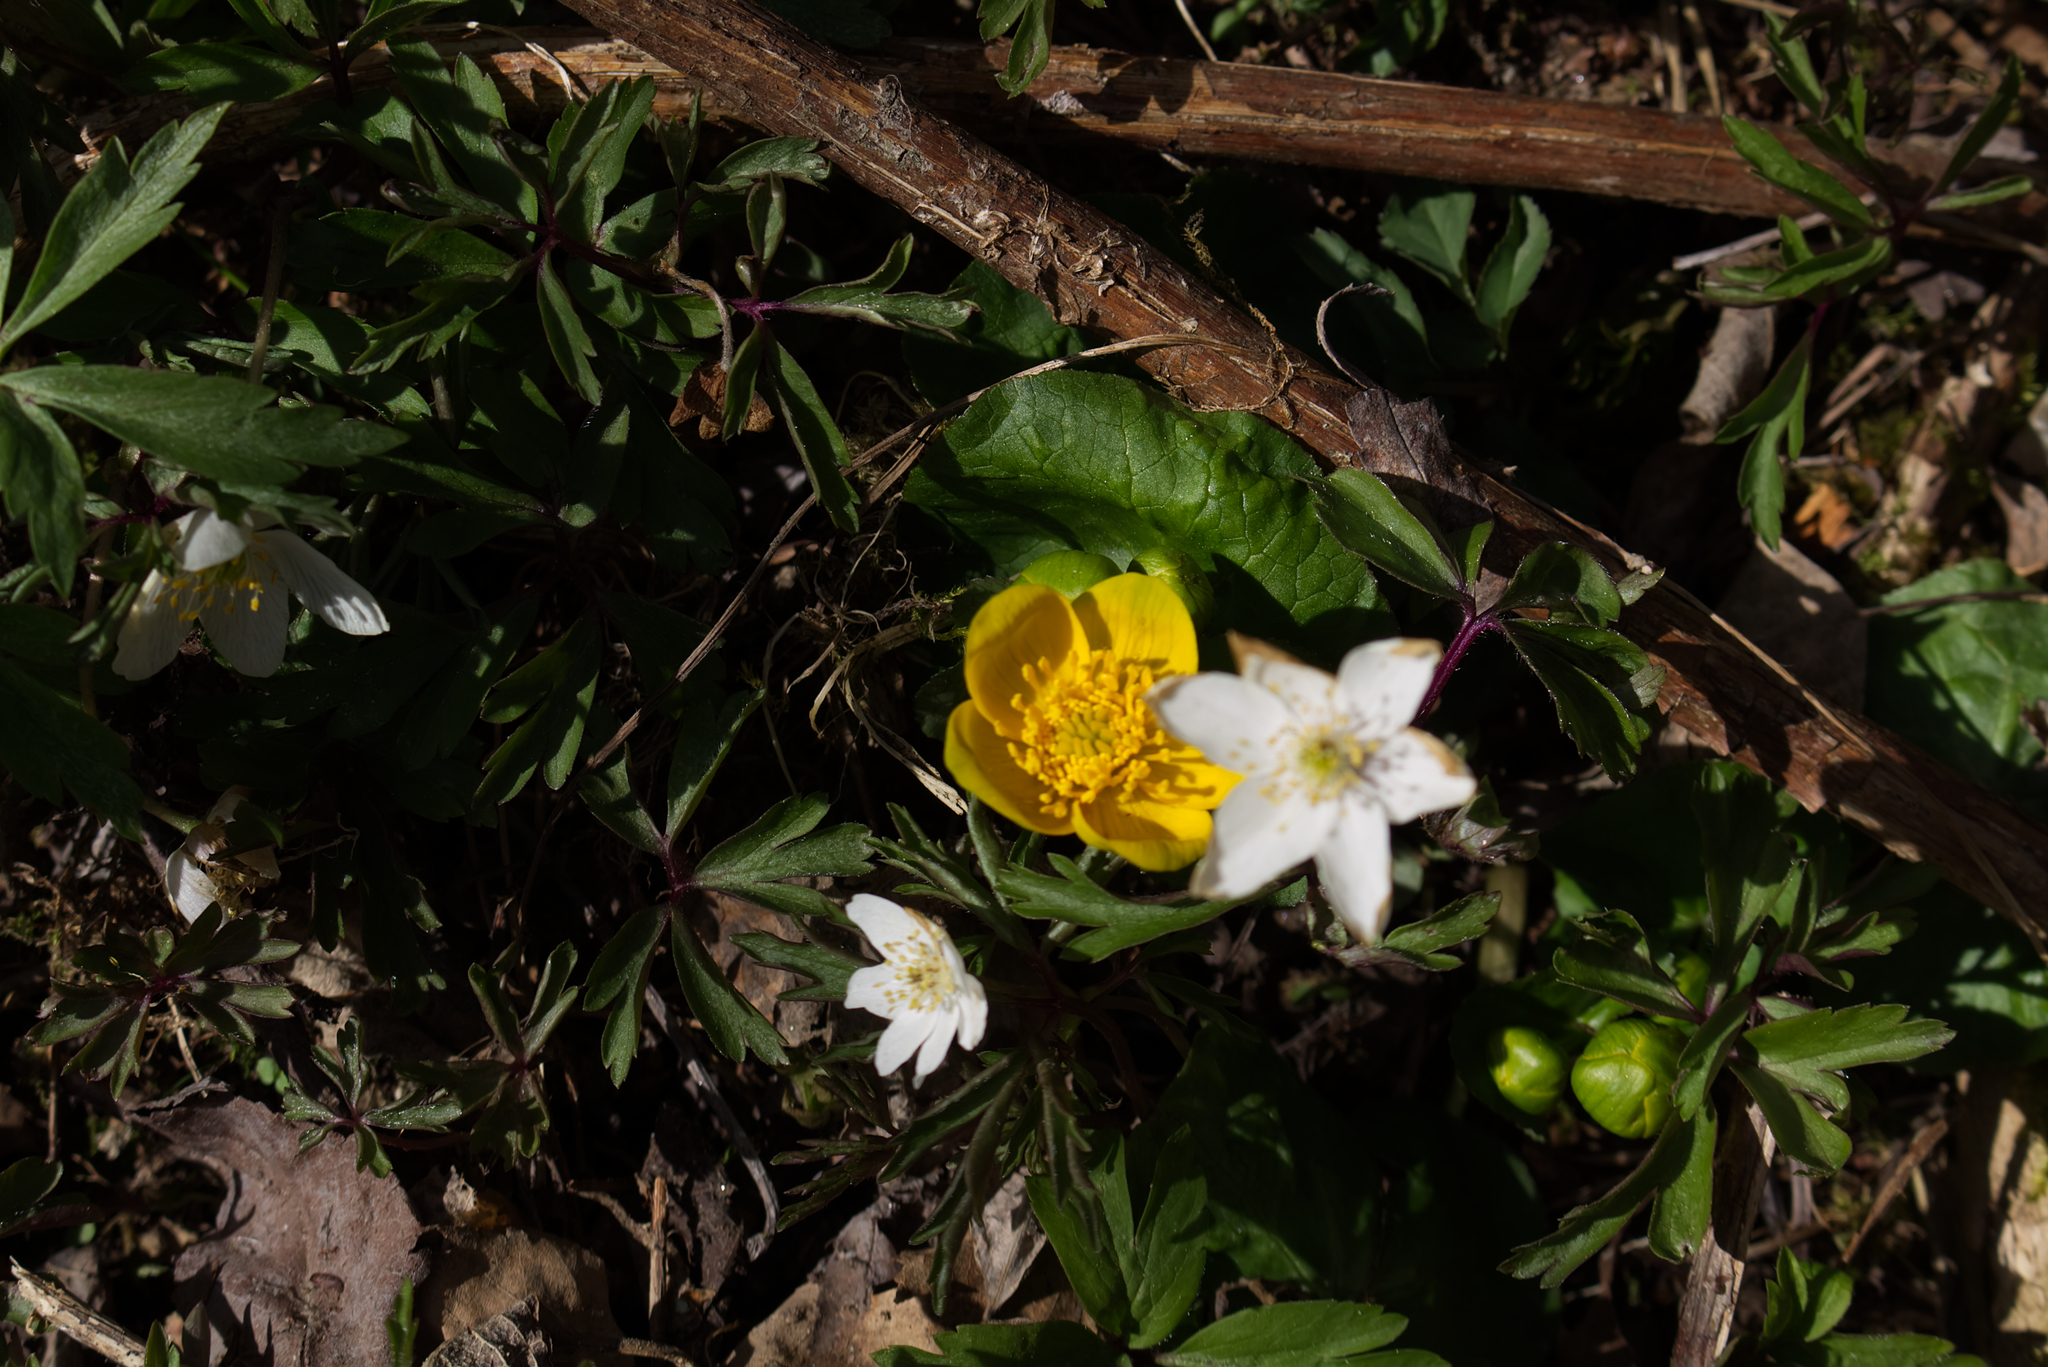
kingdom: Plantae
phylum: Tracheophyta
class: Magnoliopsida
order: Ranunculales
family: Ranunculaceae
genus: Caltha
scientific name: Caltha palustris
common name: Marsh marigold
